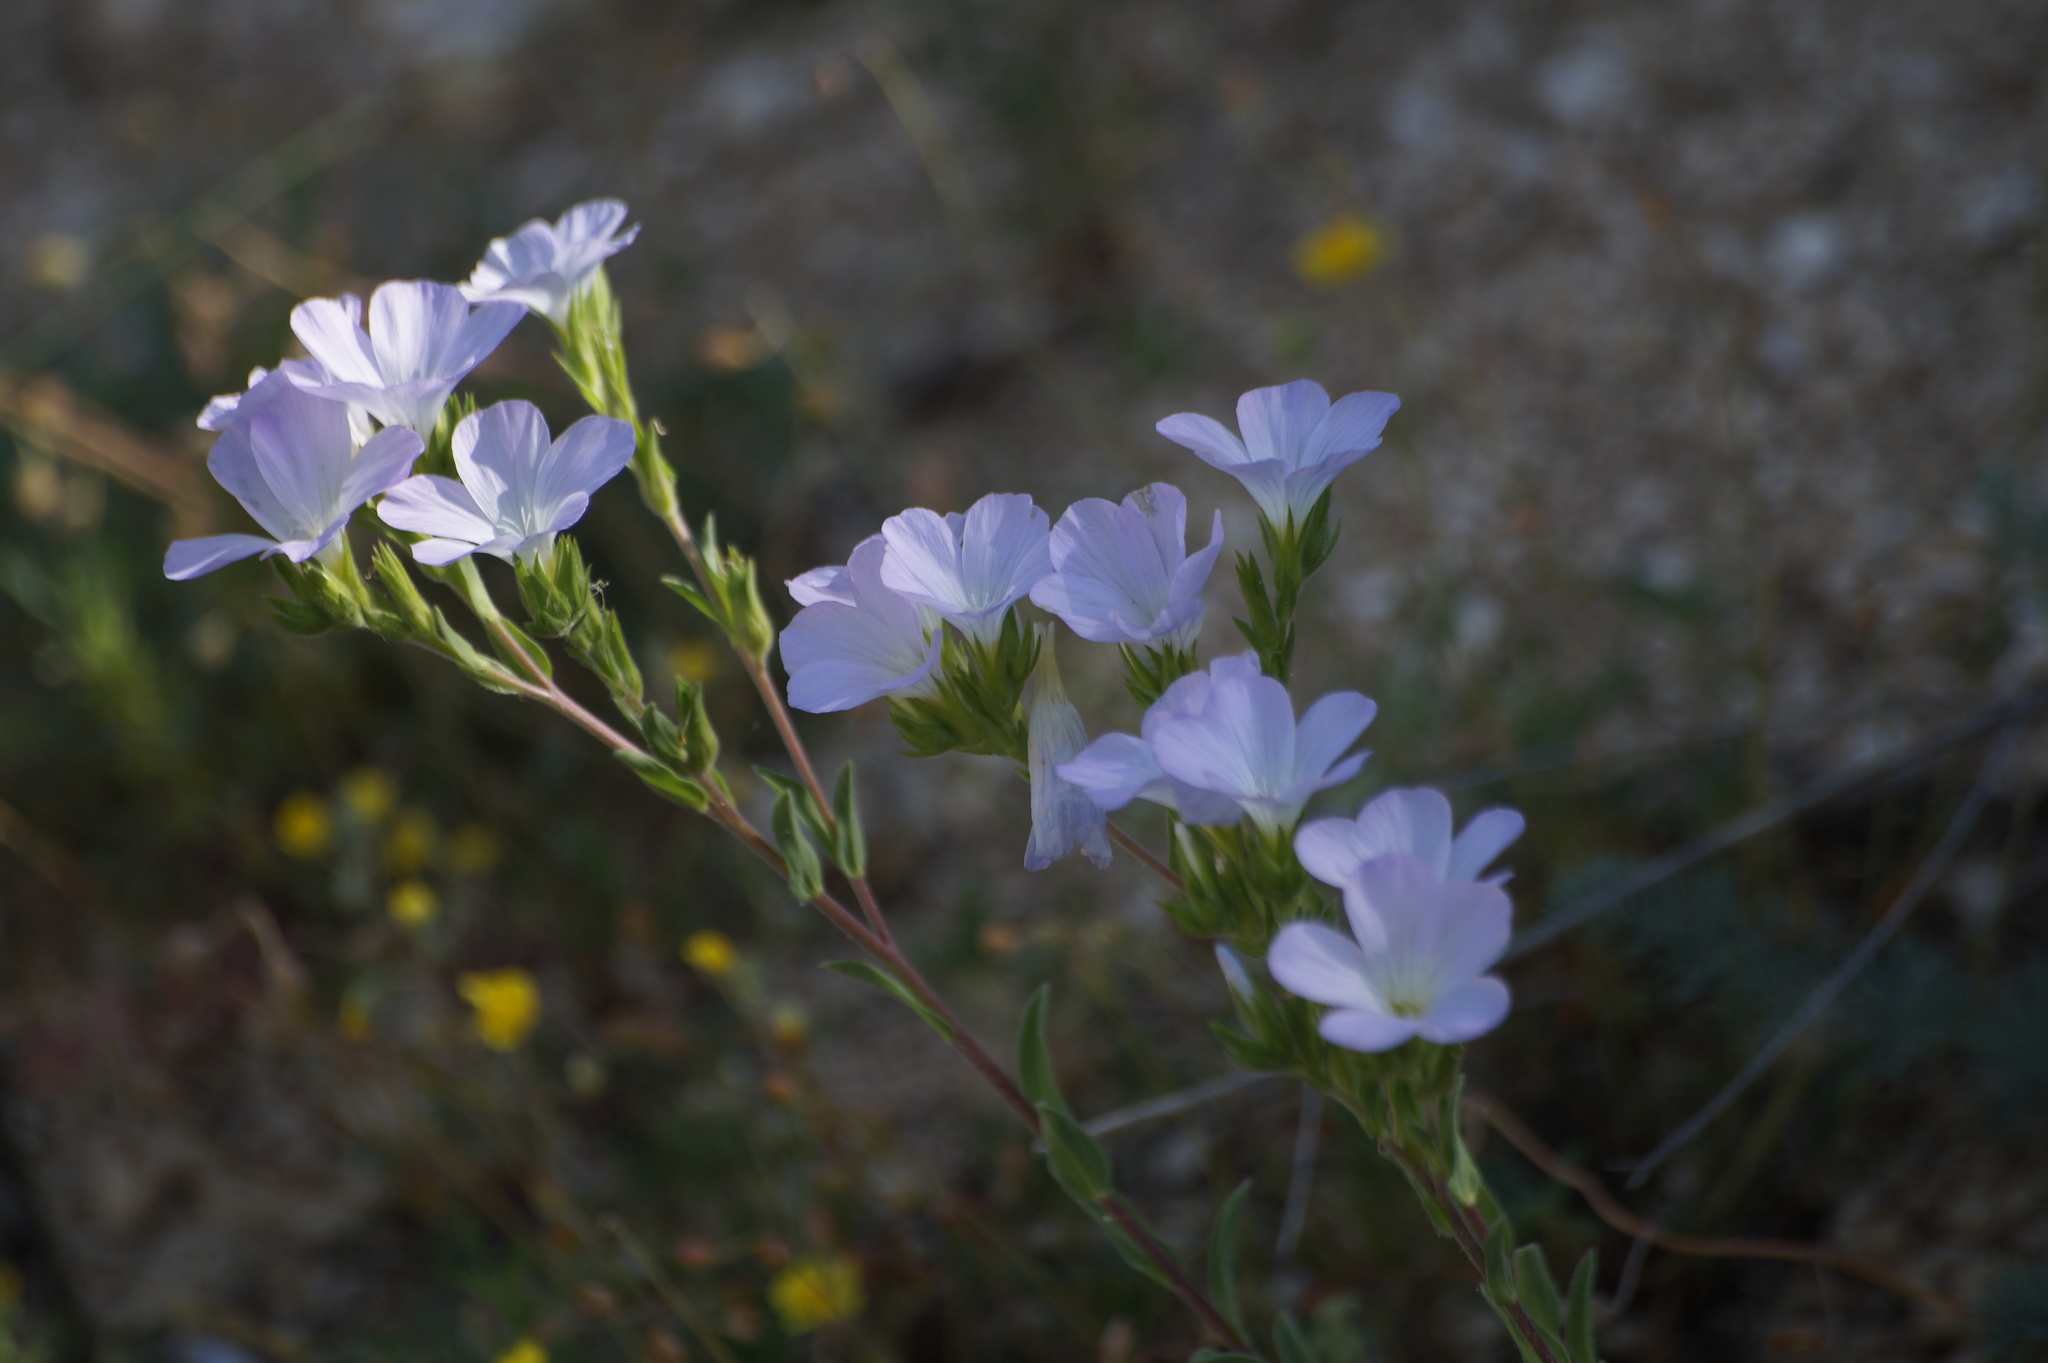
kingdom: Plantae
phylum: Tracheophyta
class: Magnoliopsida
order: Malpighiales
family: Linaceae
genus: Linum
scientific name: Linum hirsutum
